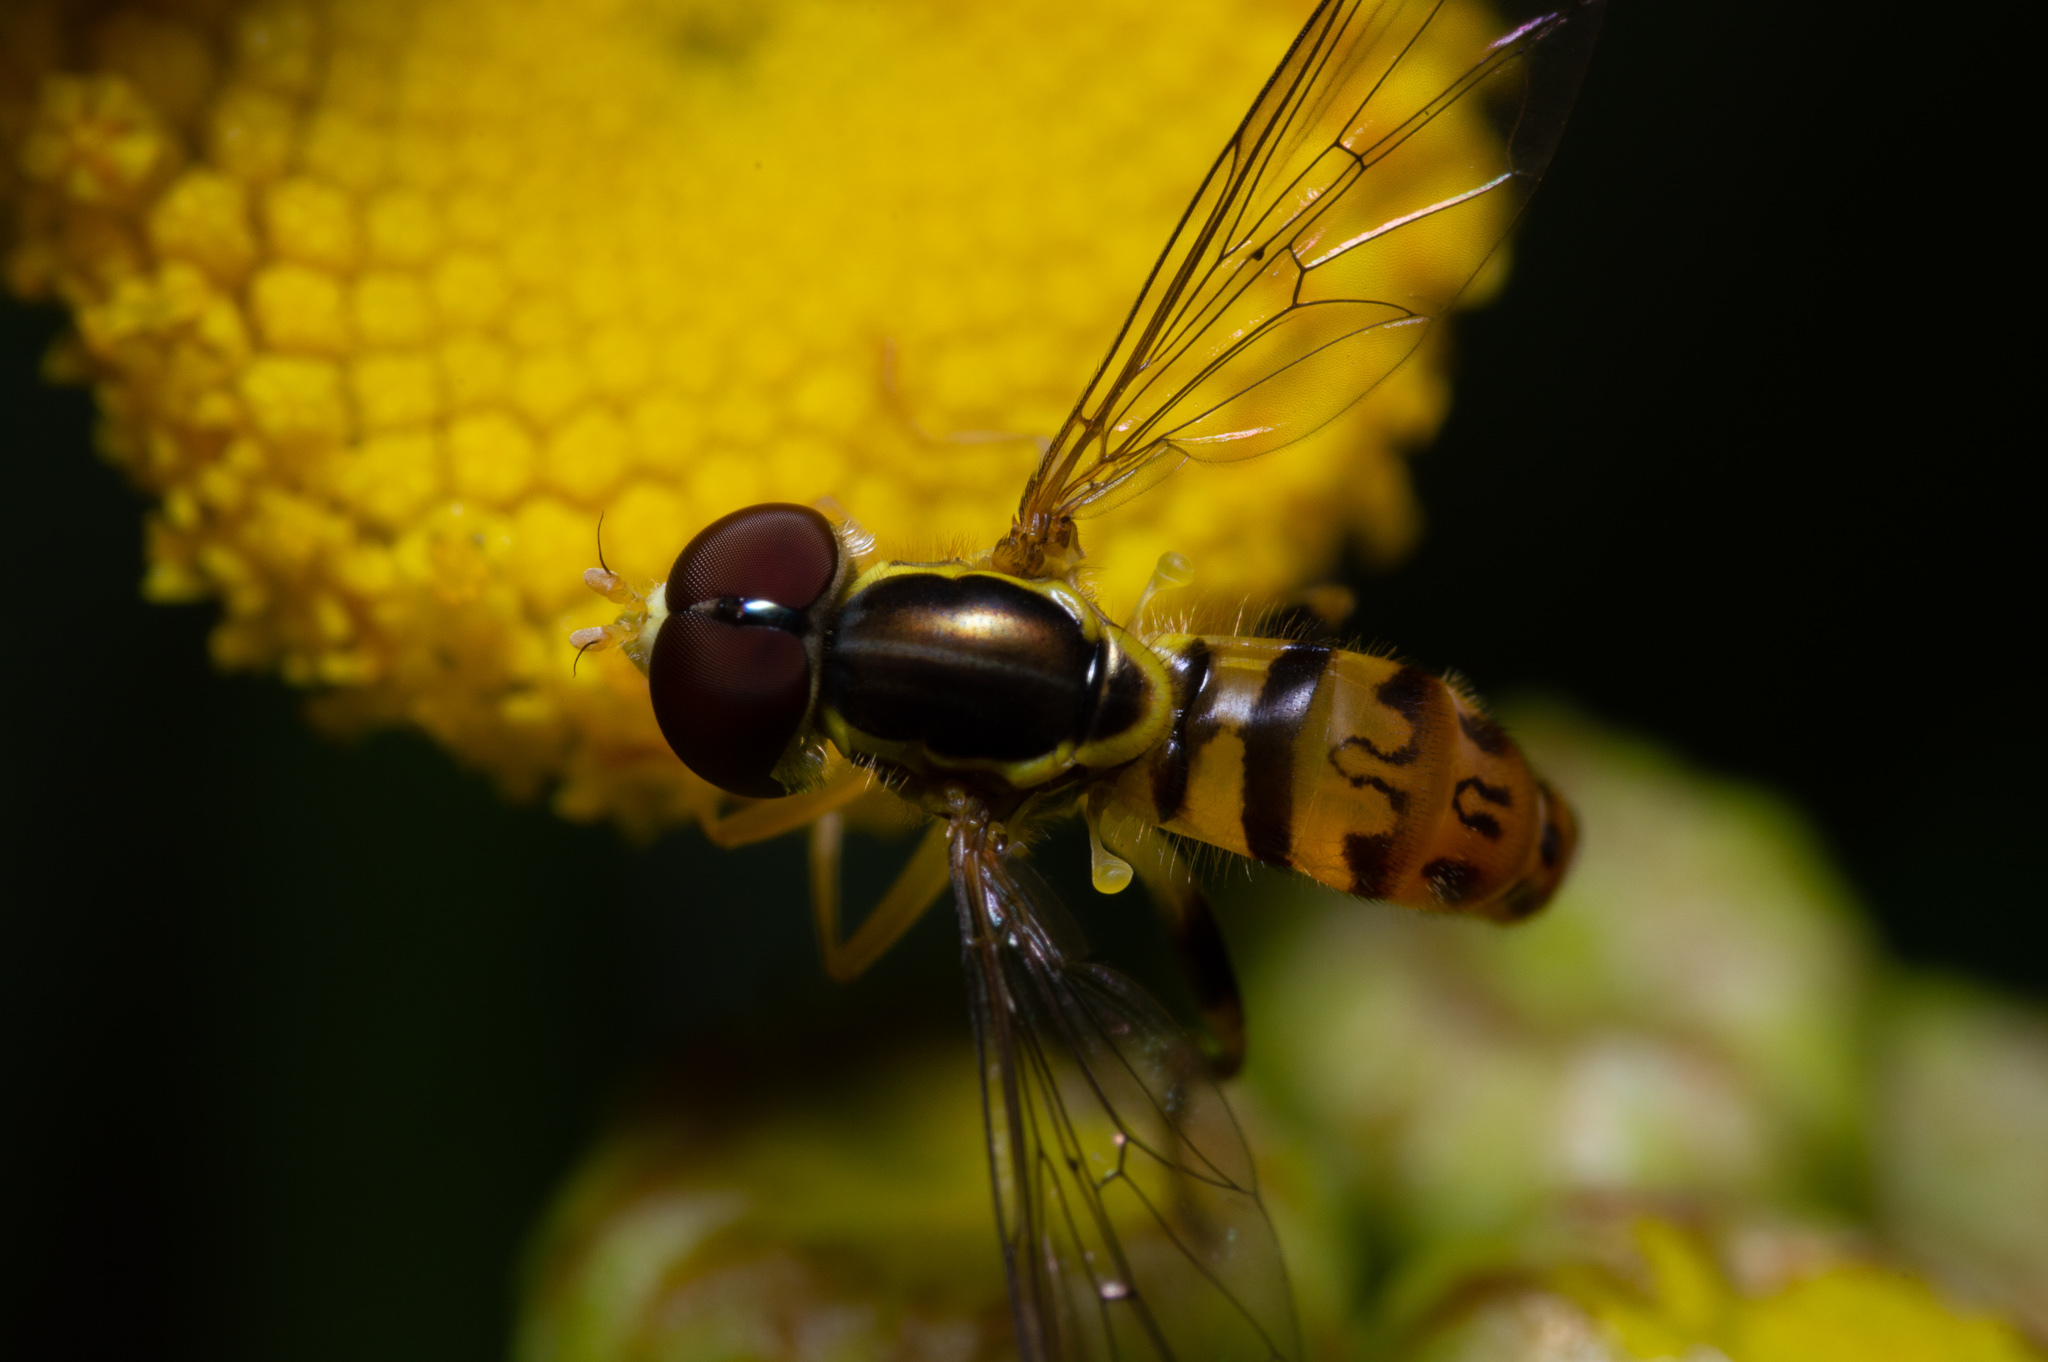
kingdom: Animalia
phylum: Arthropoda
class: Insecta
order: Diptera
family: Syrphidae
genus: Toxomerus
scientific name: Toxomerus geminatus
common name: Eastern calligrapher
